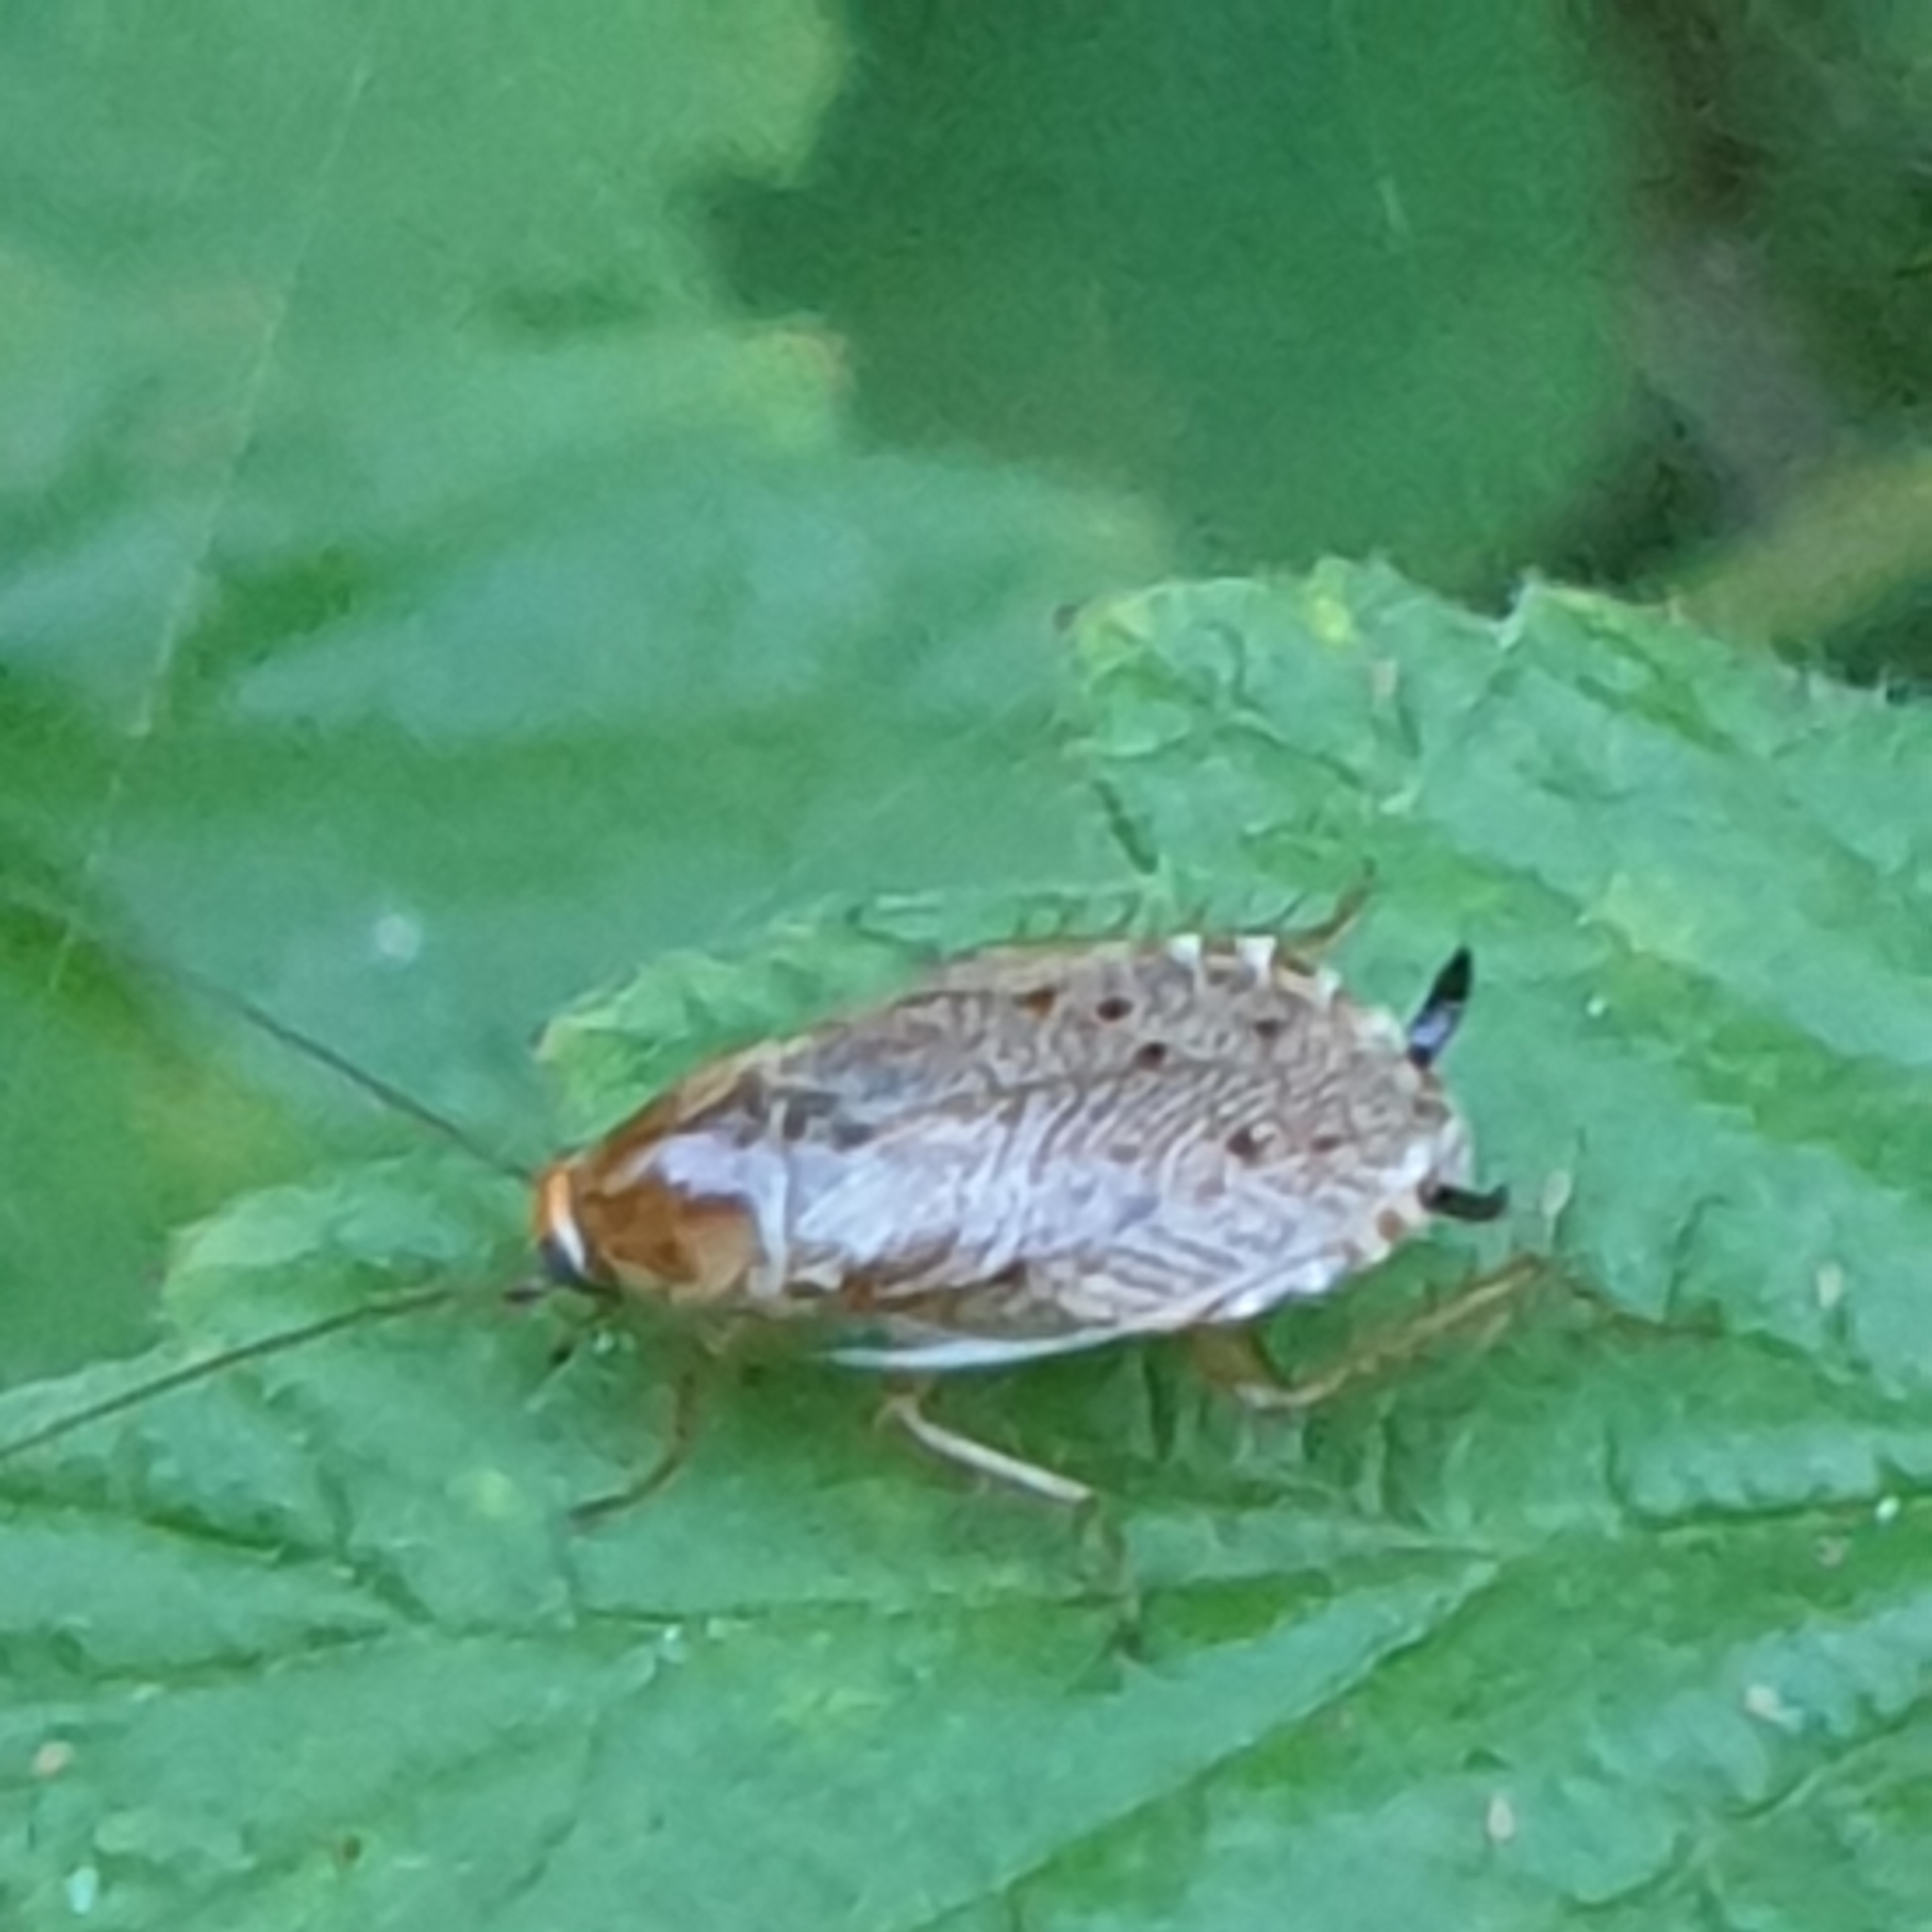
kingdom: Animalia
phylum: Arthropoda
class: Insecta
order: Blattodea
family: Ectobiidae
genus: Ectobius
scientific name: Ectobius lapponicus
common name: Dusky cockroach
